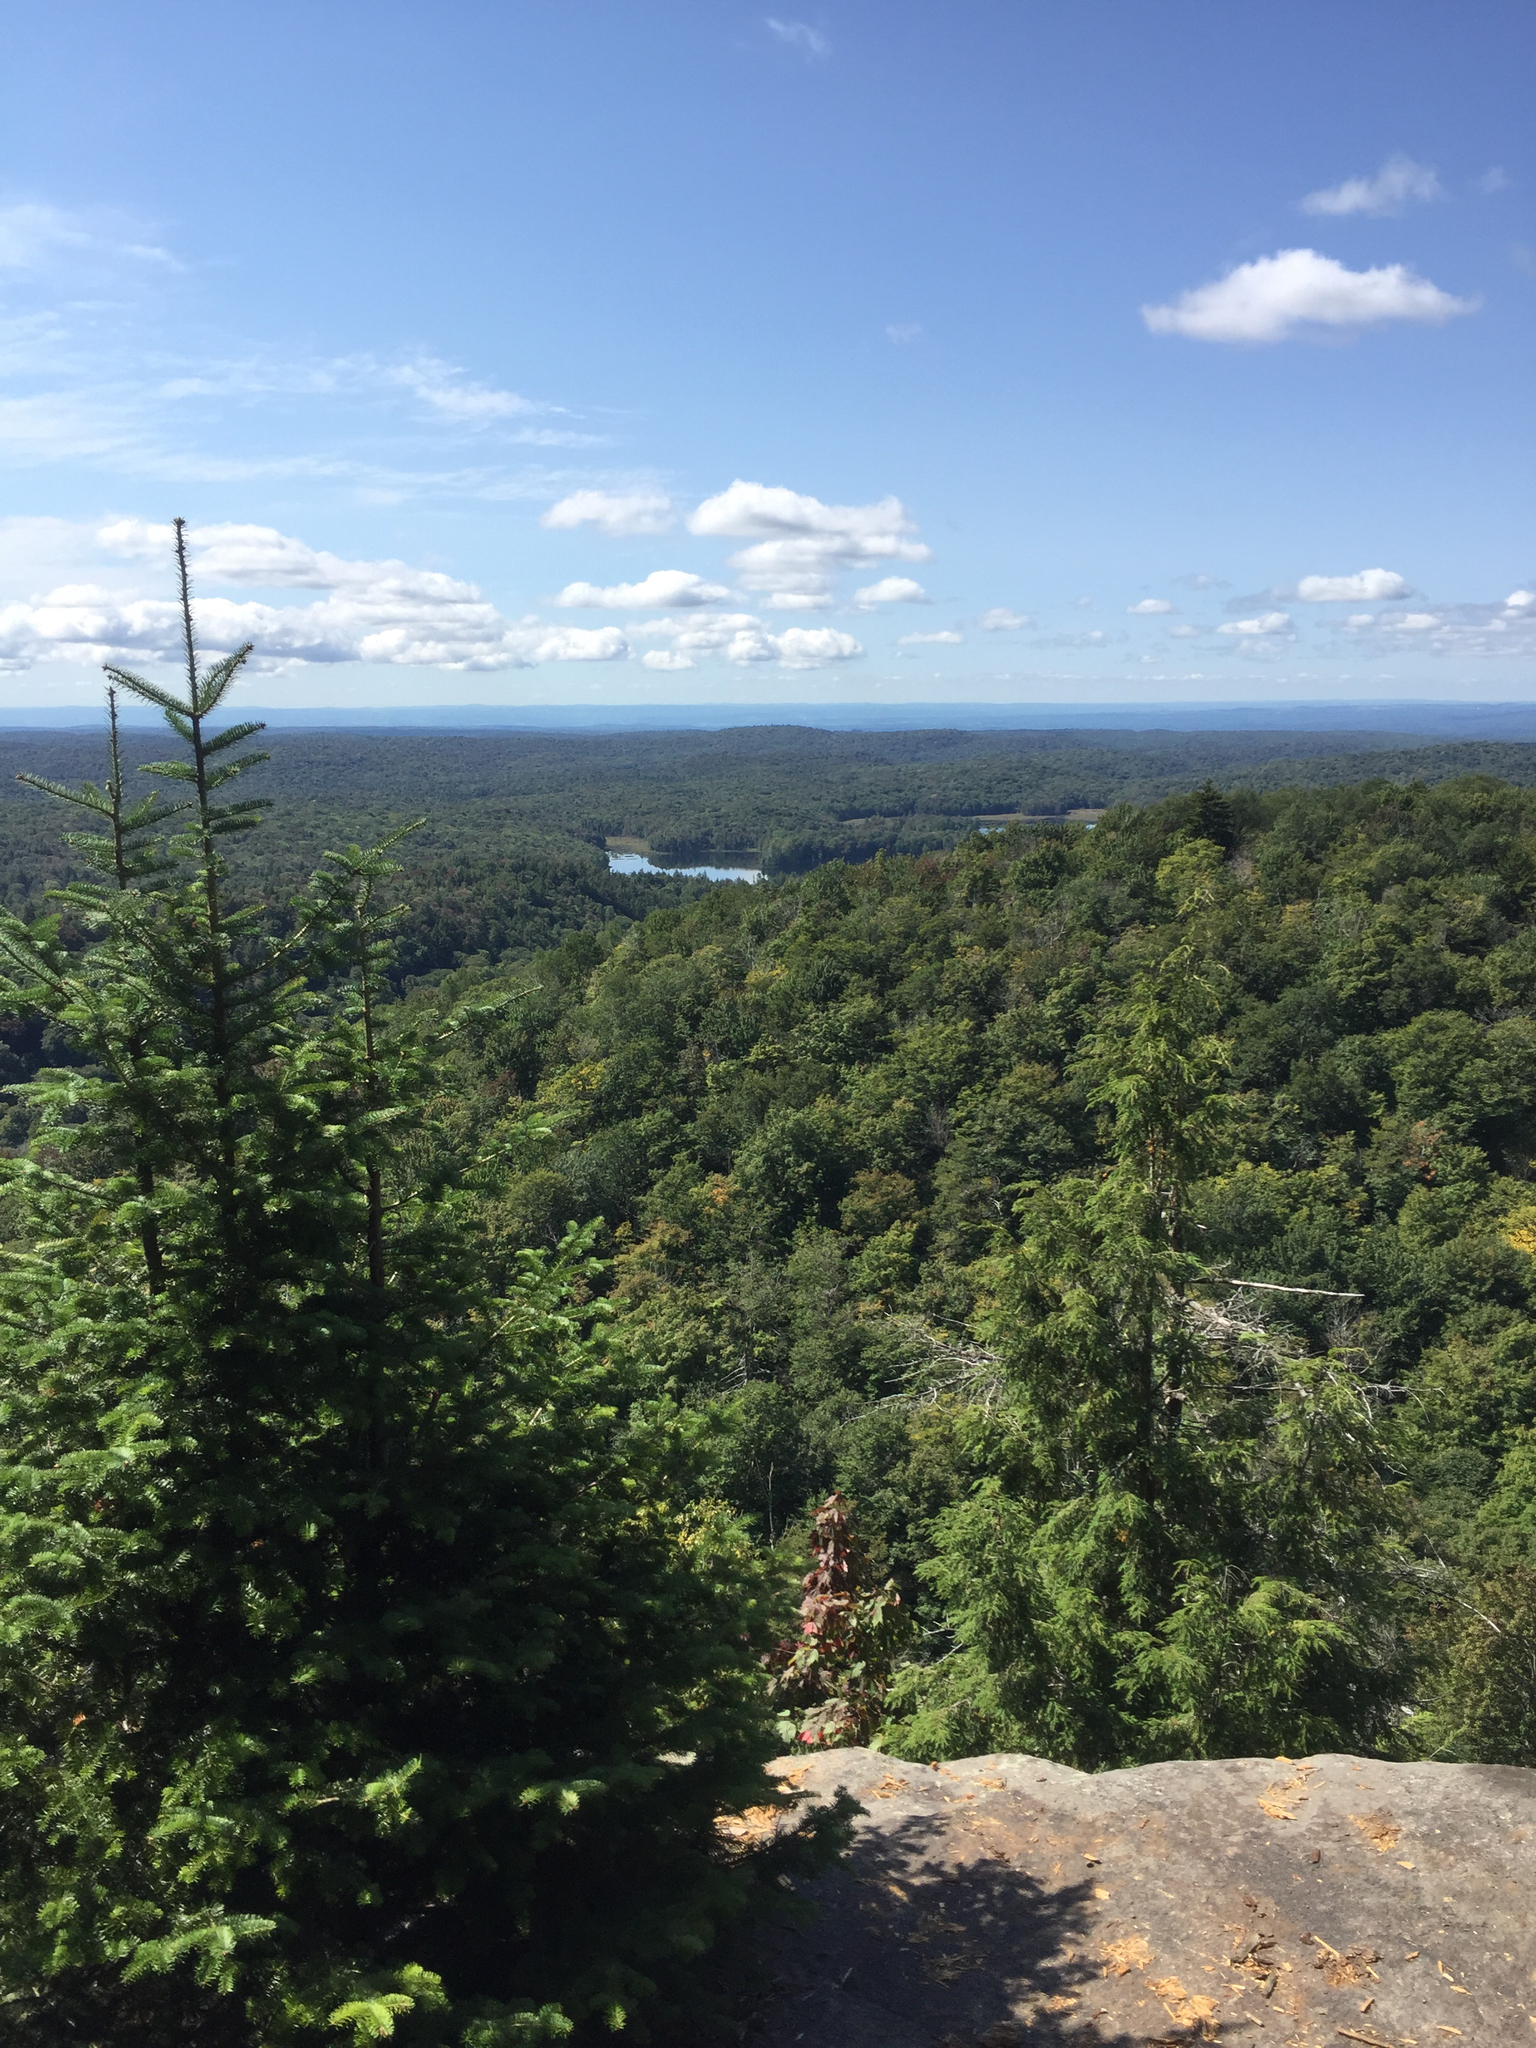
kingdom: Plantae
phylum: Tracheophyta
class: Pinopsida
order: Pinales
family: Pinaceae
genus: Abies
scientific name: Abies balsamea
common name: Balsam fir
